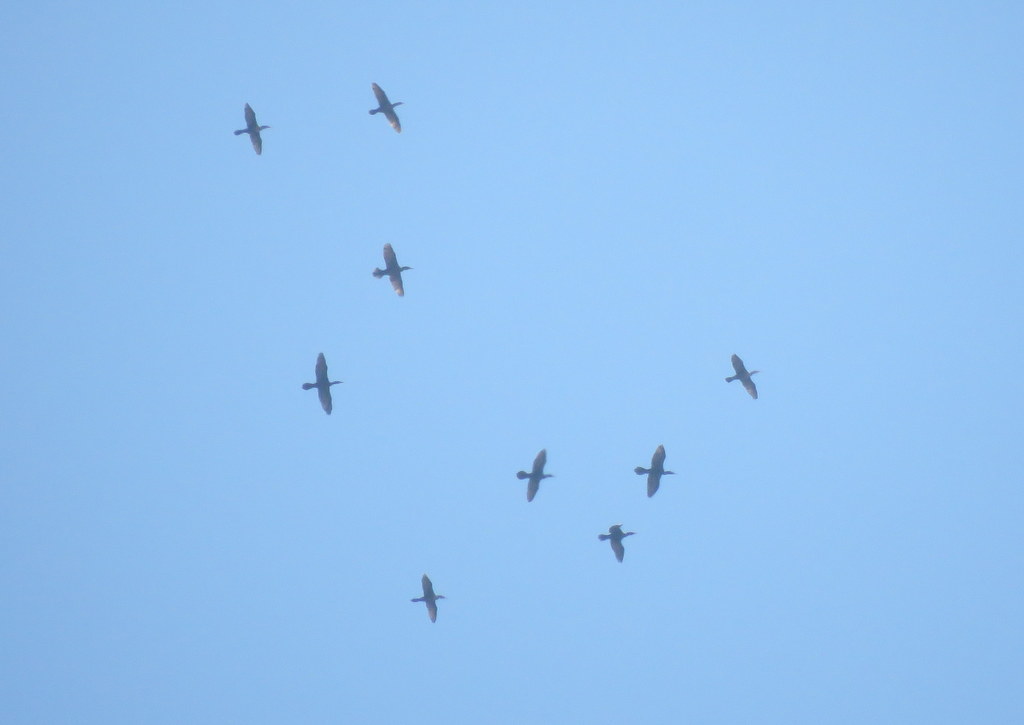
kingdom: Animalia
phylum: Chordata
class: Aves
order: Suliformes
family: Phalacrocoracidae
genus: Phalacrocorax
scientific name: Phalacrocorax brasilianus
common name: Neotropic cormorant
